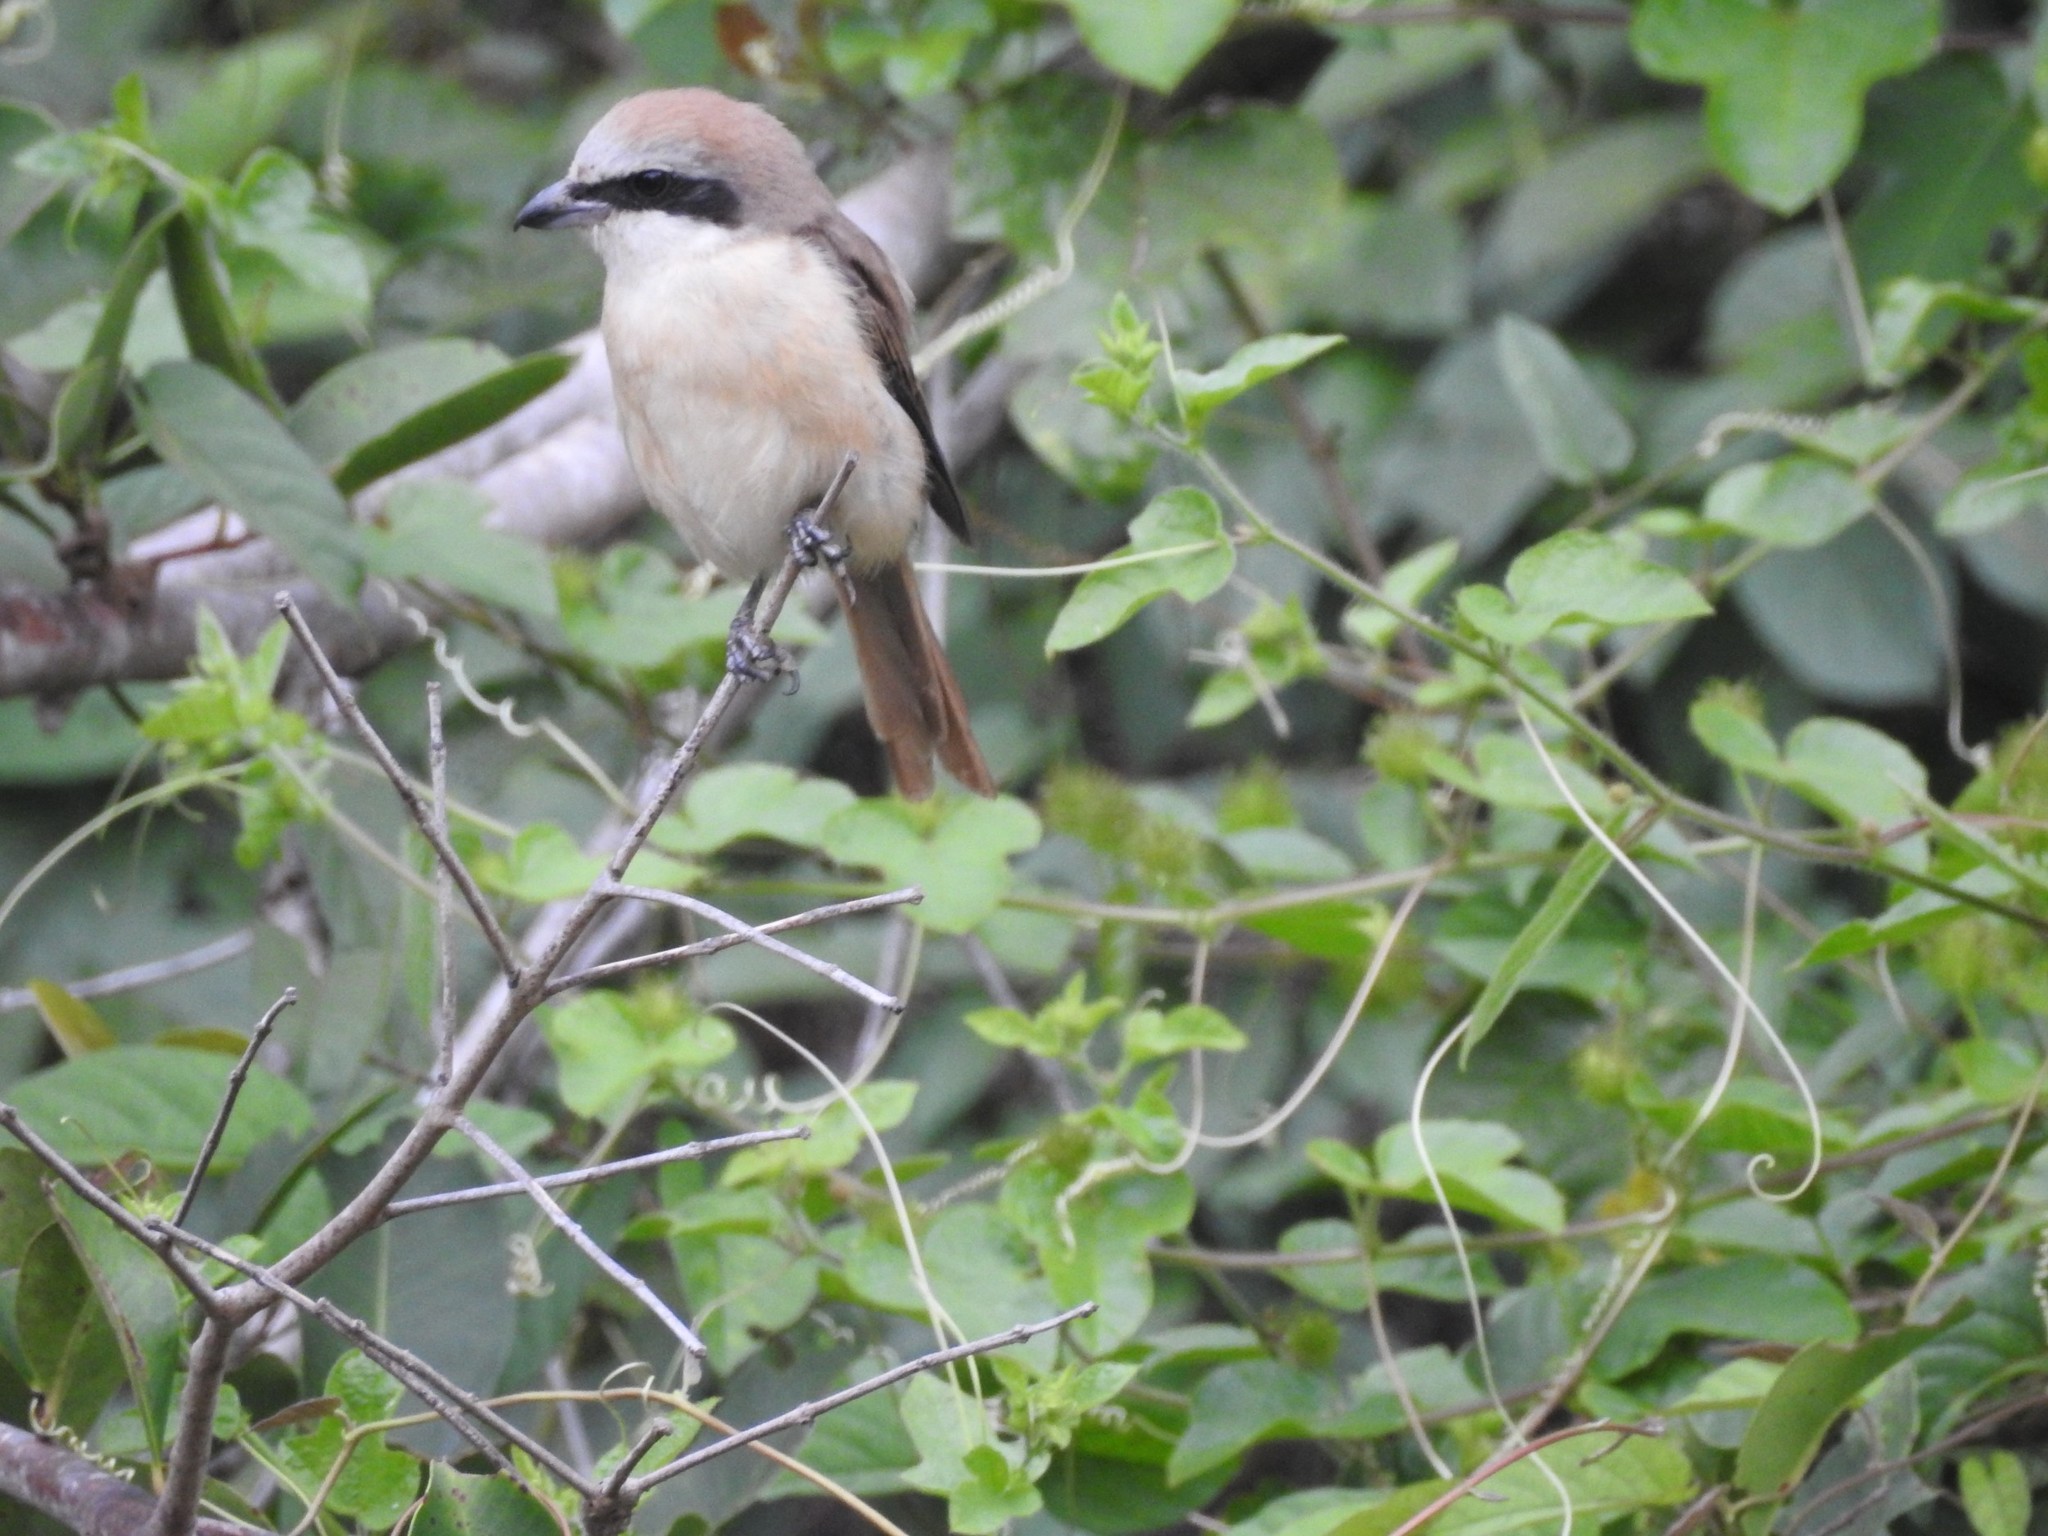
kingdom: Animalia
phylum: Chordata
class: Aves
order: Passeriformes
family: Laniidae
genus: Lanius
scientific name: Lanius cristatus
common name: Brown shrike
